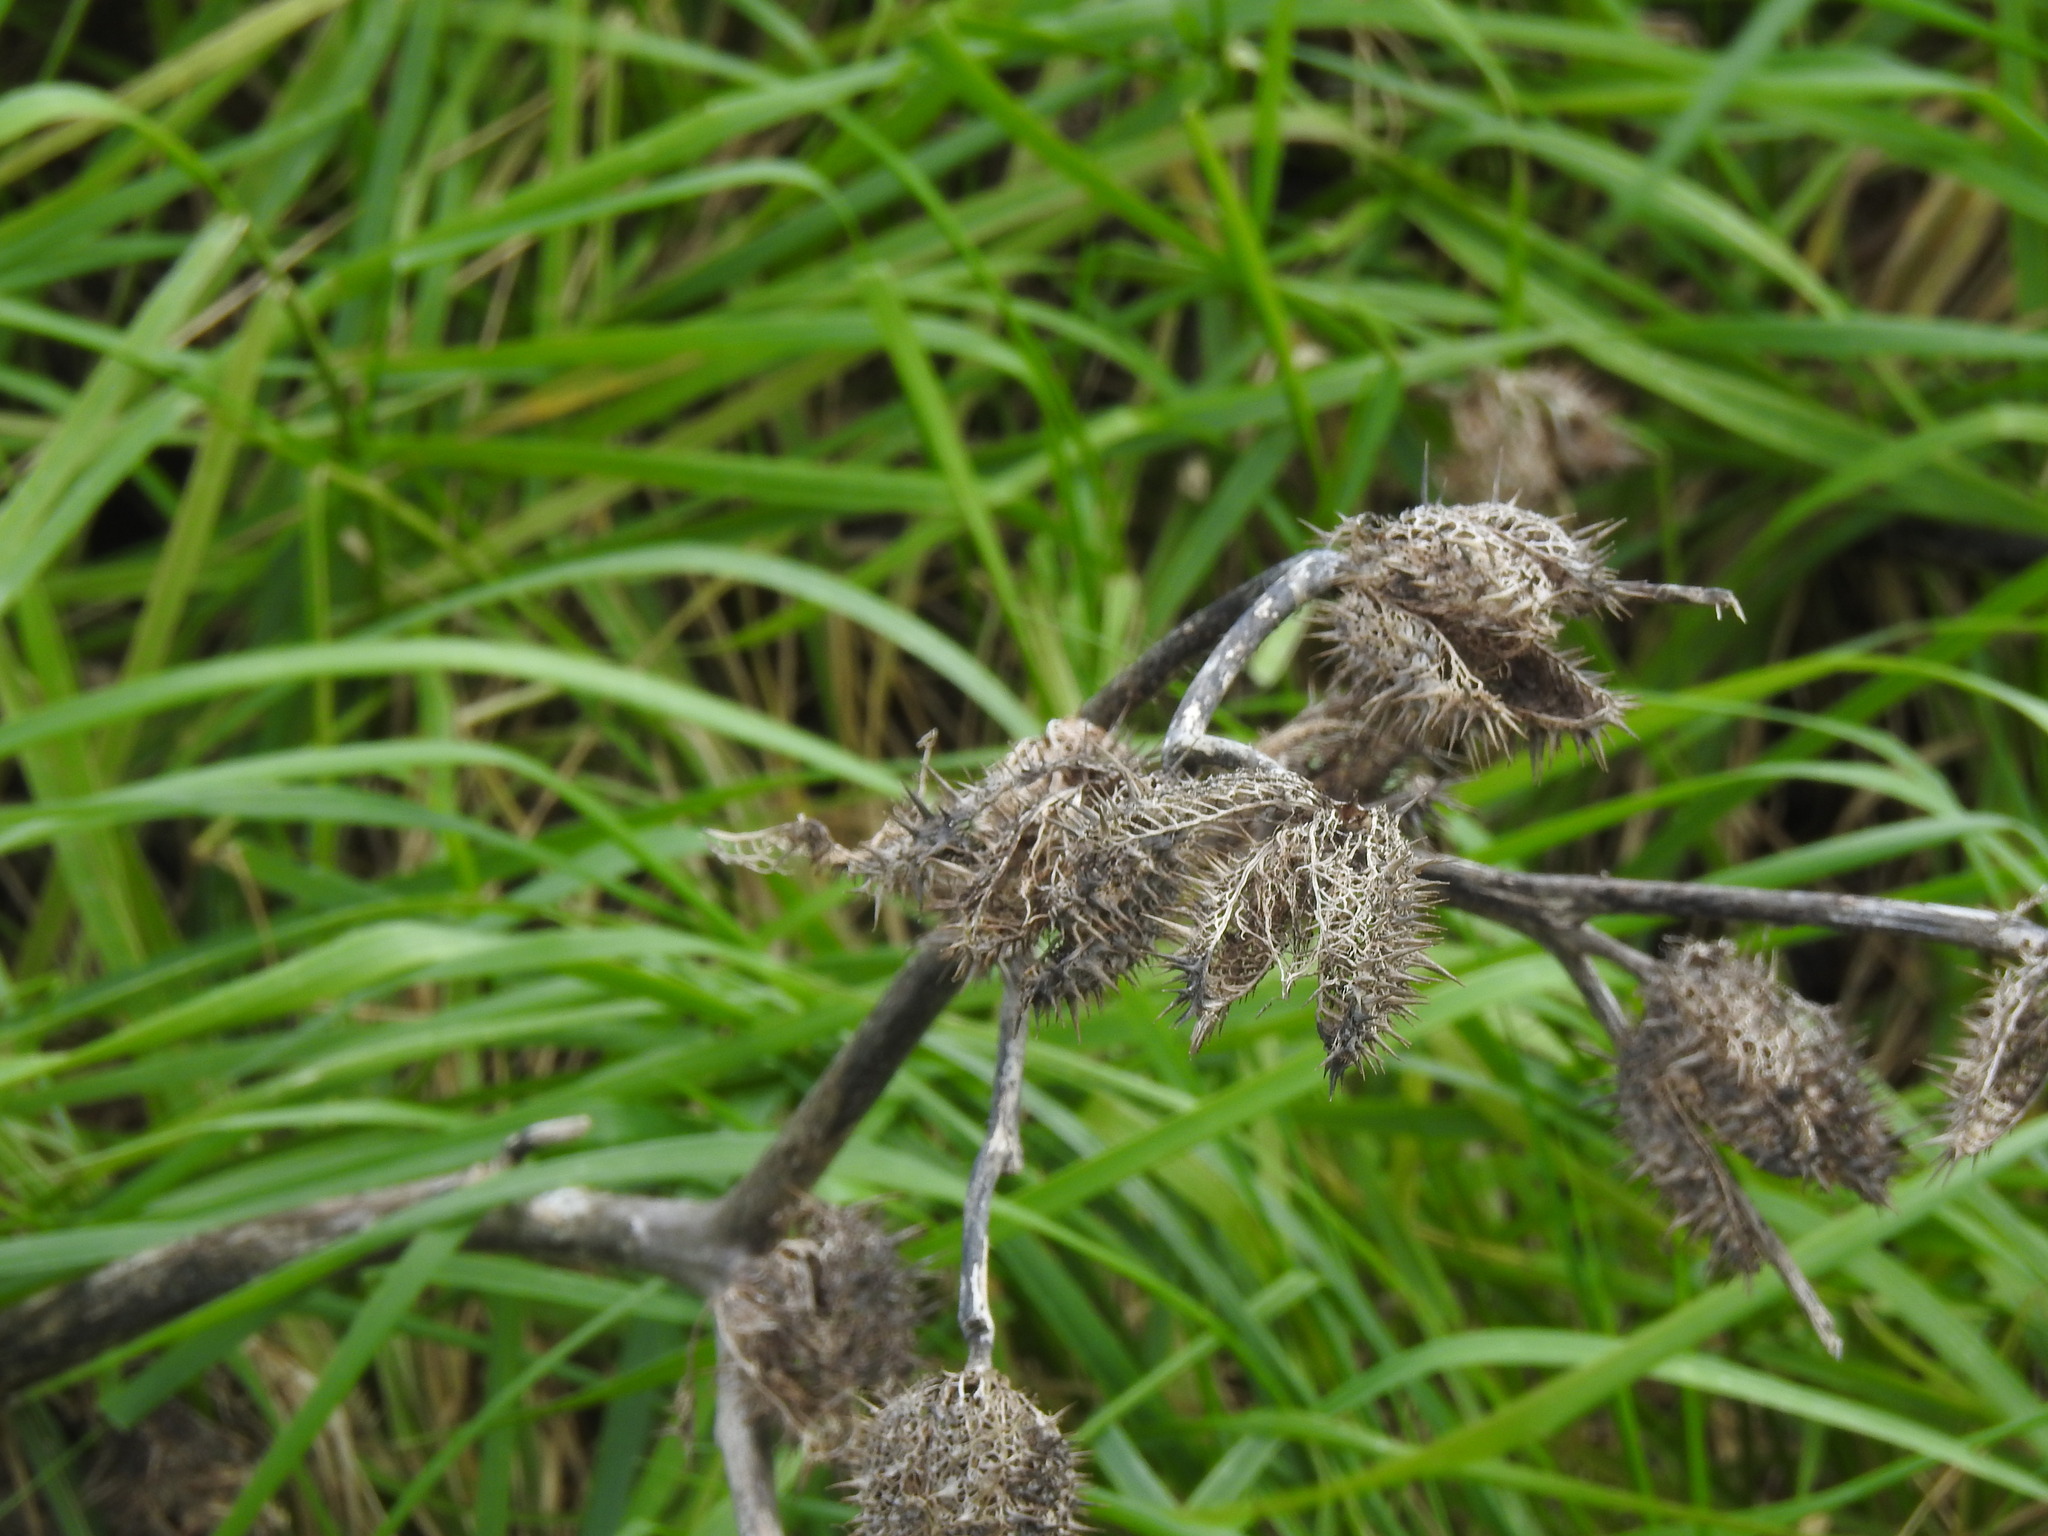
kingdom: Plantae
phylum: Tracheophyta
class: Magnoliopsida
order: Solanales
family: Solanaceae
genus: Datura
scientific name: Datura stramonium
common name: Thorn-apple
